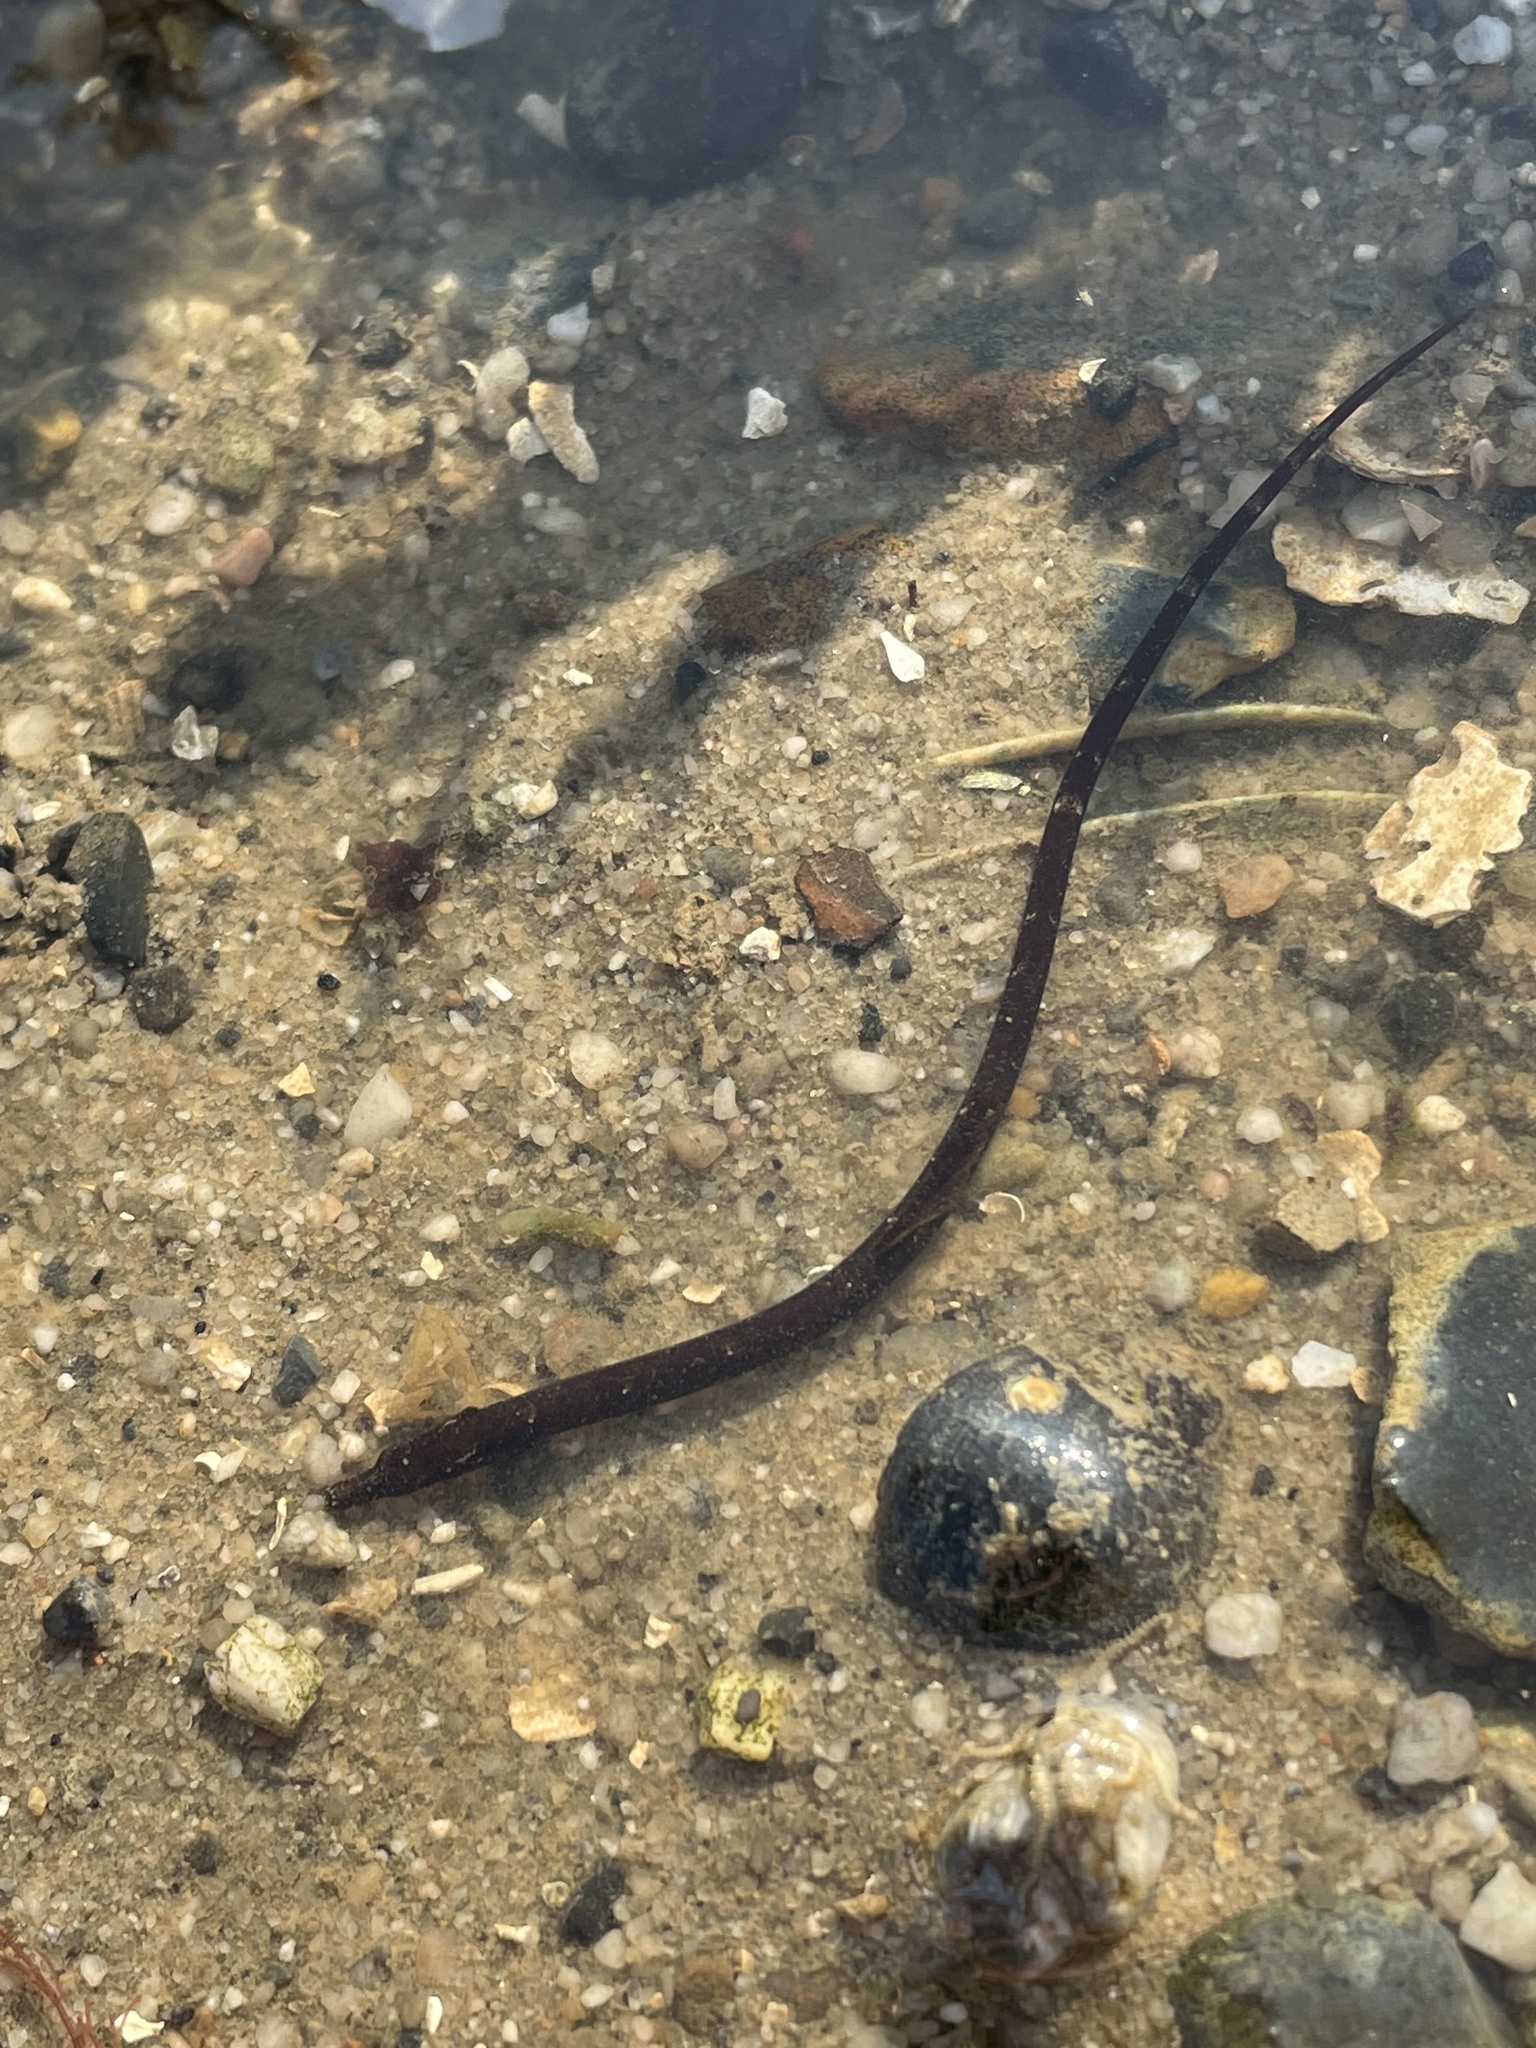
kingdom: Animalia
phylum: Chordata
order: Syngnathiformes
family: Syngnathidae
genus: Nerophis
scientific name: Nerophis lumbriciformis
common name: Worm pipefish
